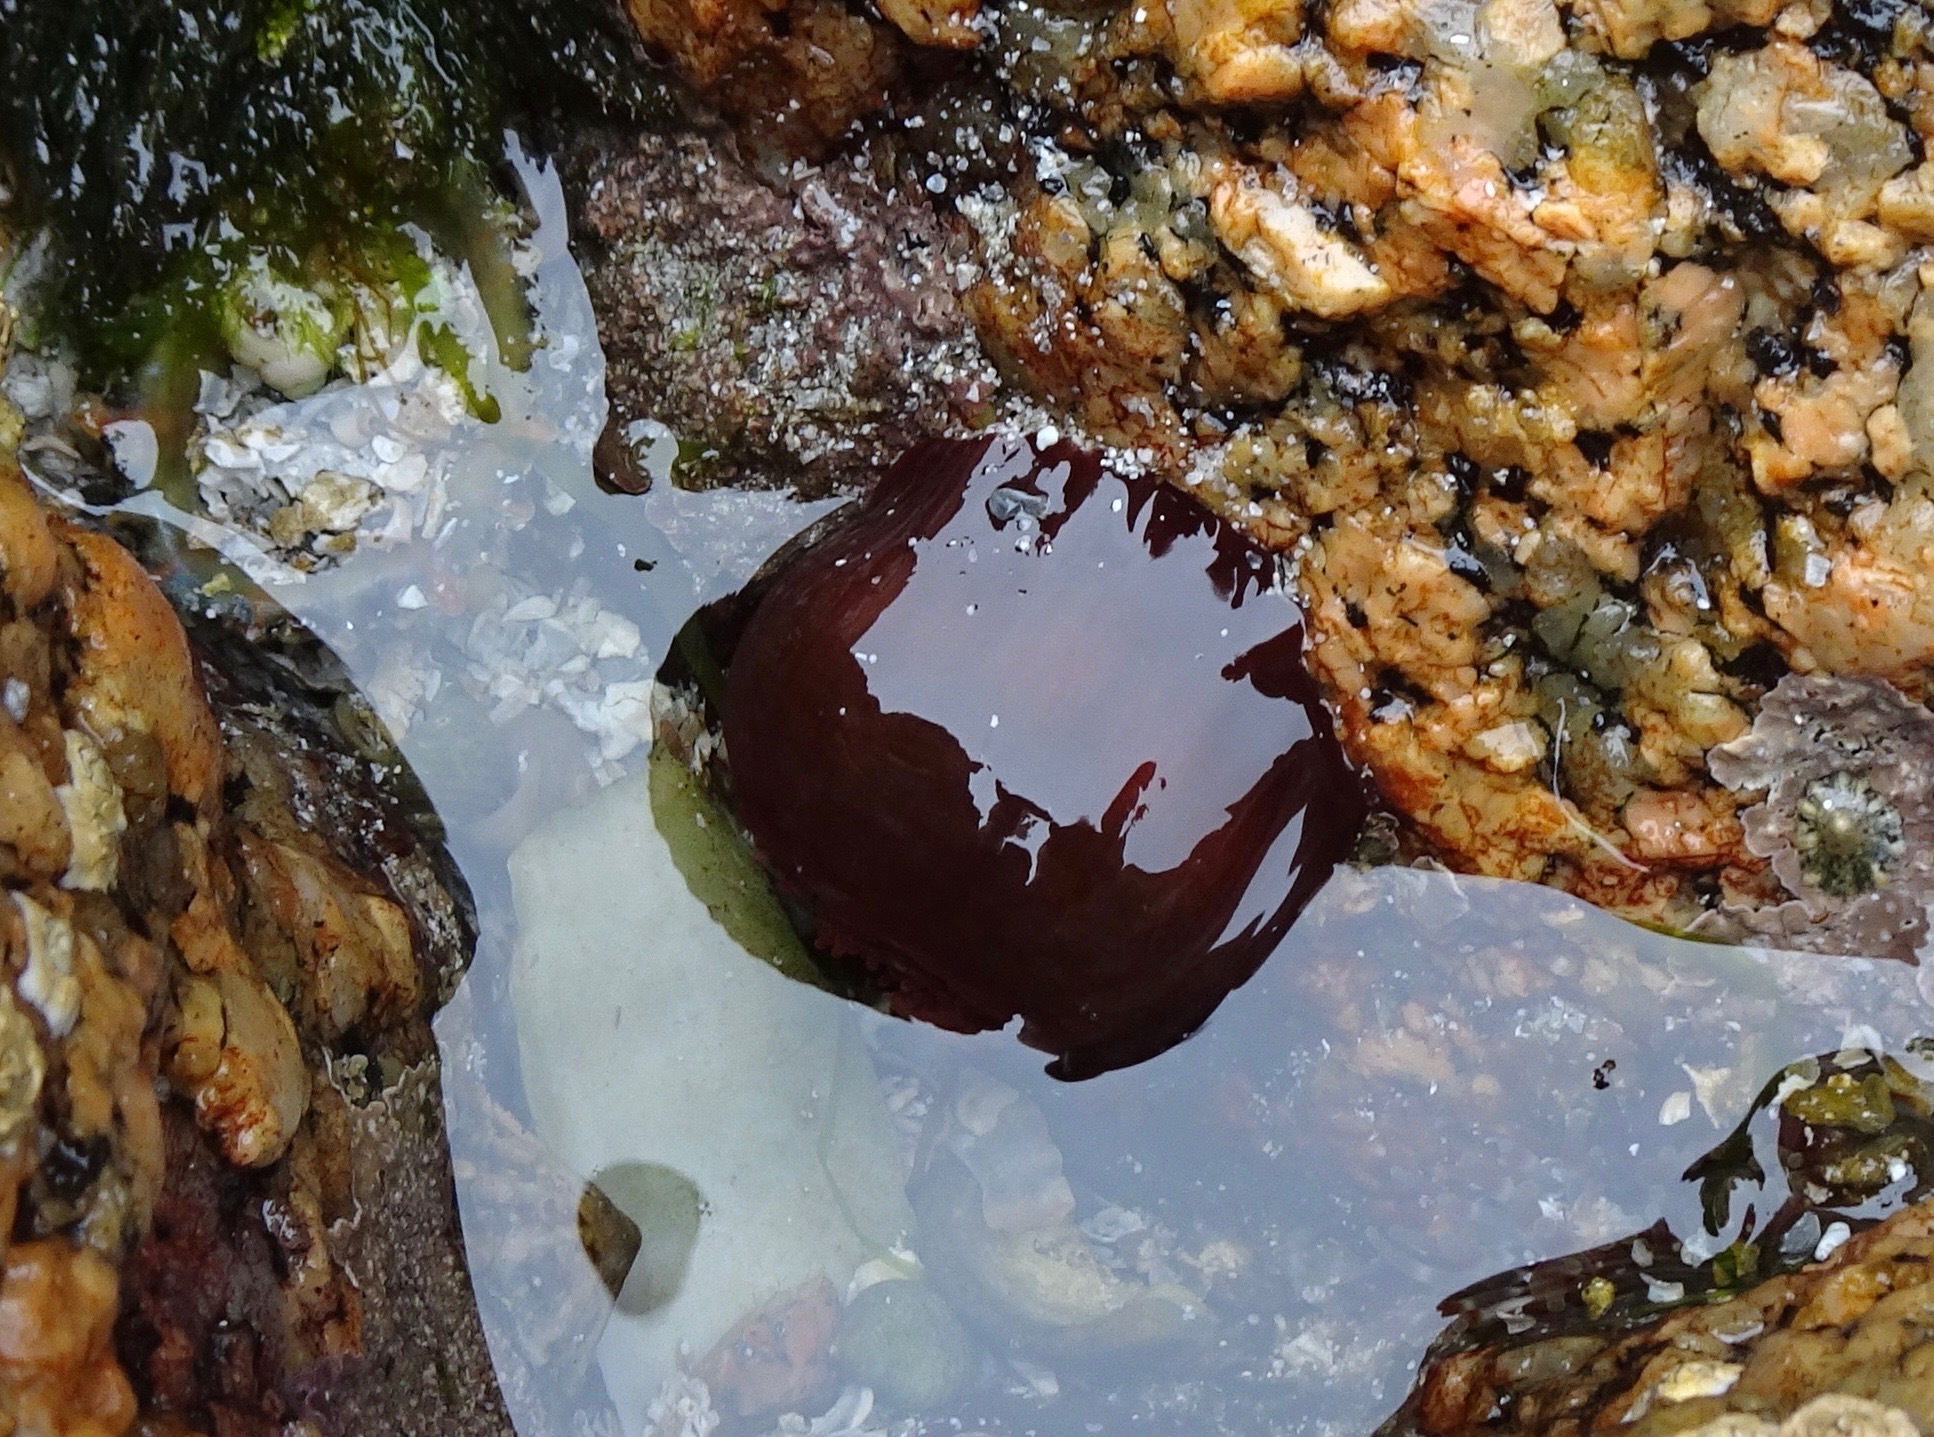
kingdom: Animalia
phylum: Cnidaria
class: Anthozoa
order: Actiniaria
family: Actiniidae
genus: Actinia
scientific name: Actinia equina
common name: Beadlet anemone
